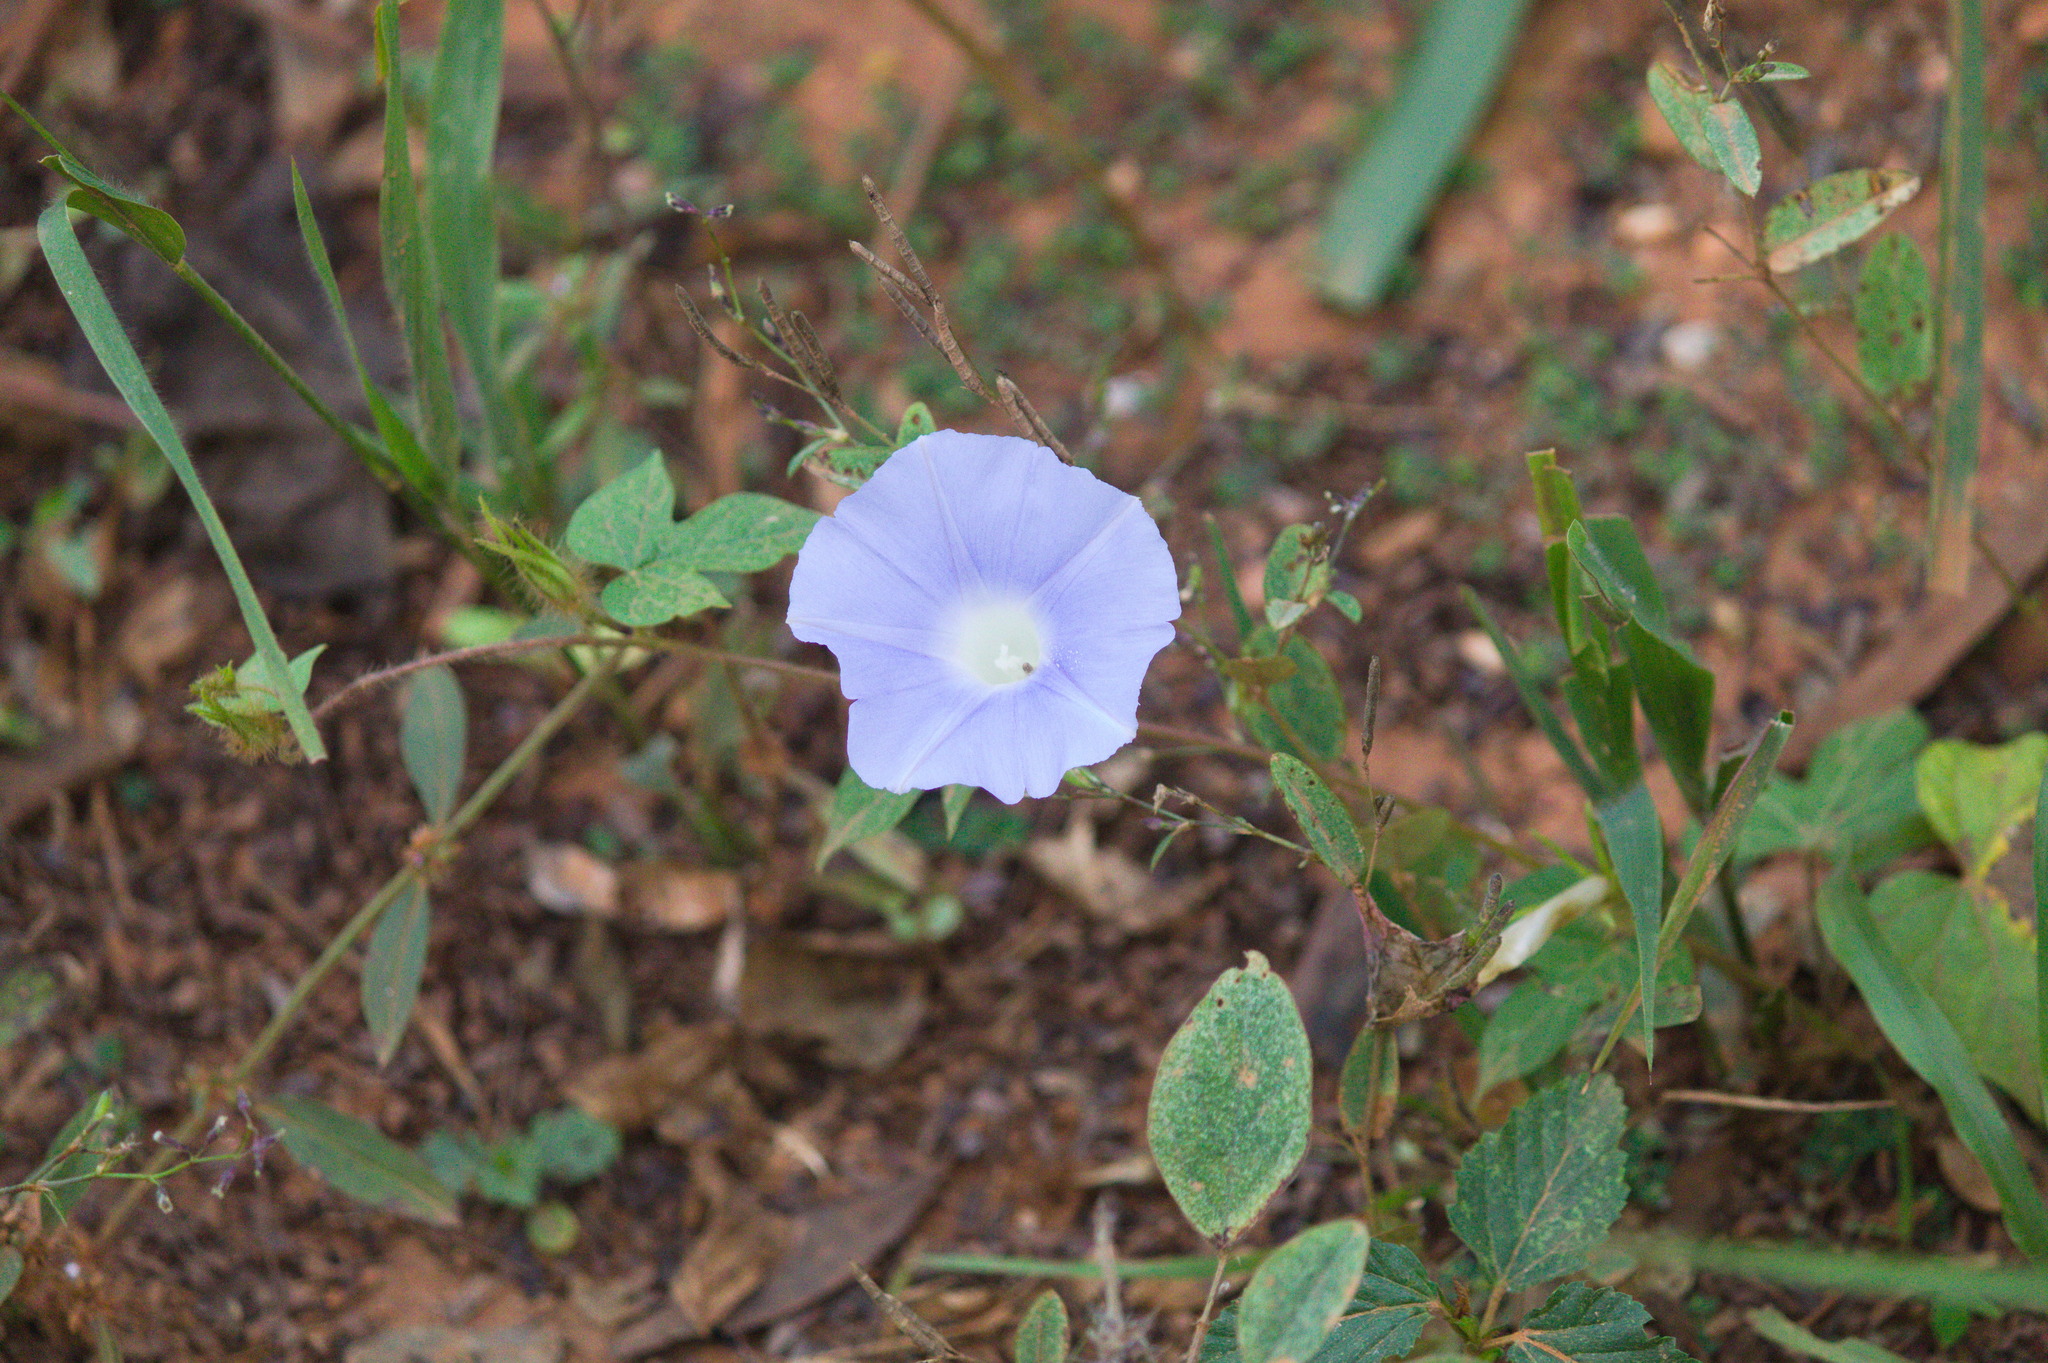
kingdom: Plantae
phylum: Tracheophyta
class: Magnoliopsida
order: Solanales
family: Convolvulaceae
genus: Ipomoea
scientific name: Ipomoea nil
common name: Japanese morning-glory
